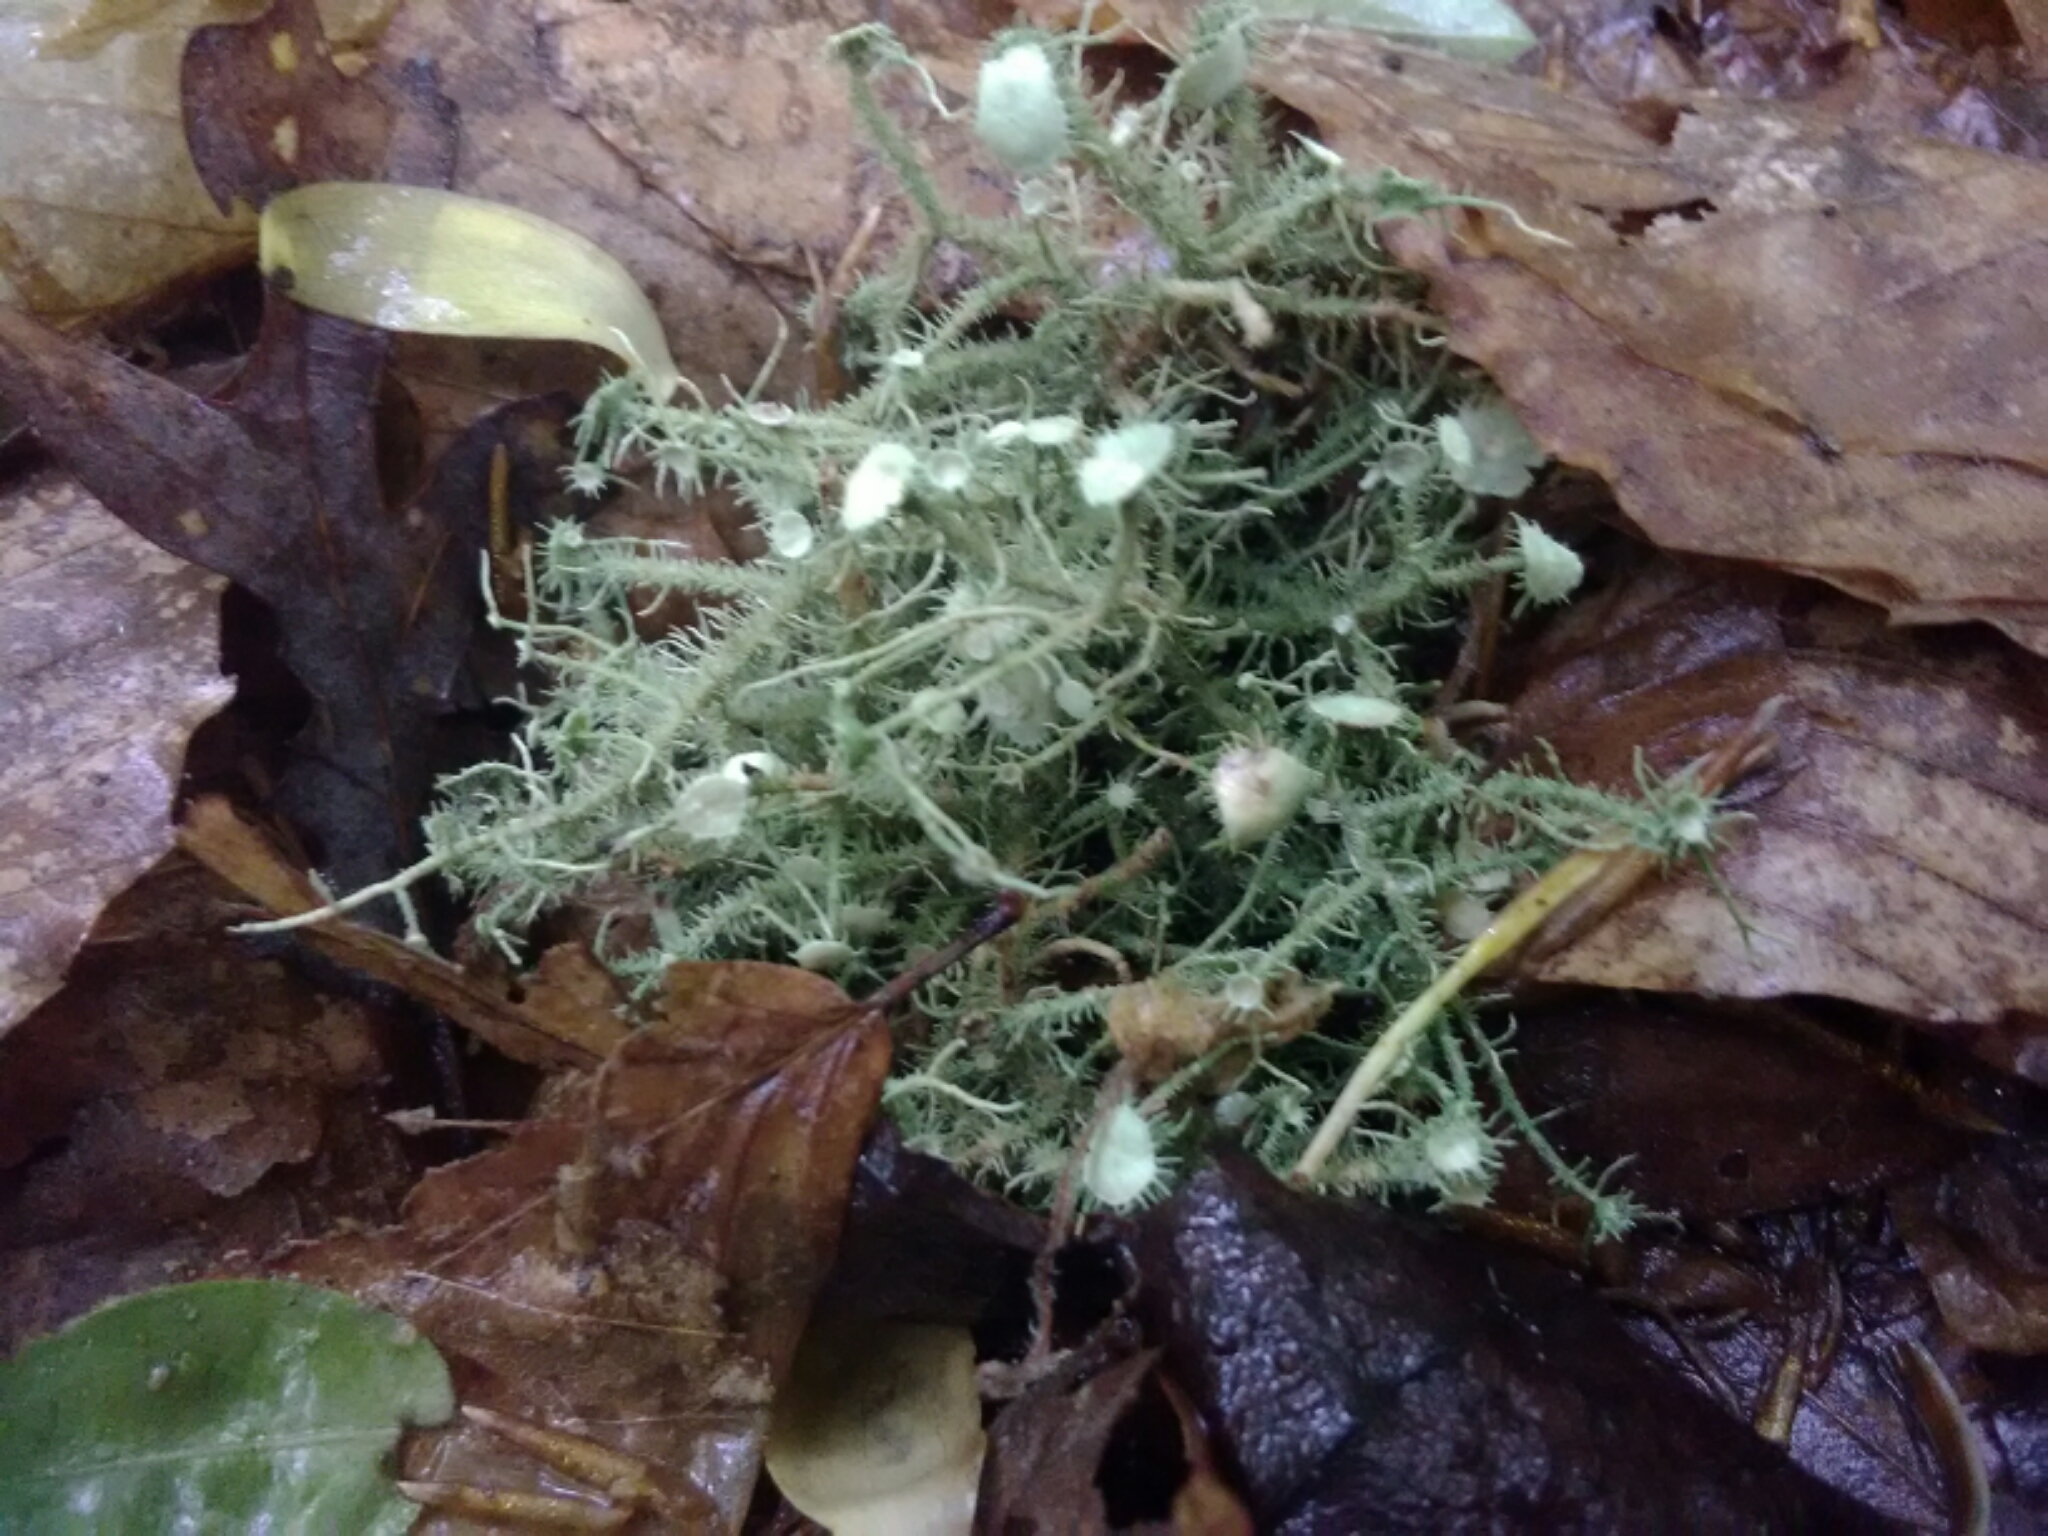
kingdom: Fungi
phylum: Ascomycota
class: Lecanoromycetes
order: Lecanorales
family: Parmeliaceae
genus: Usnea
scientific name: Usnea strigosa
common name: Bushy beard lichen
